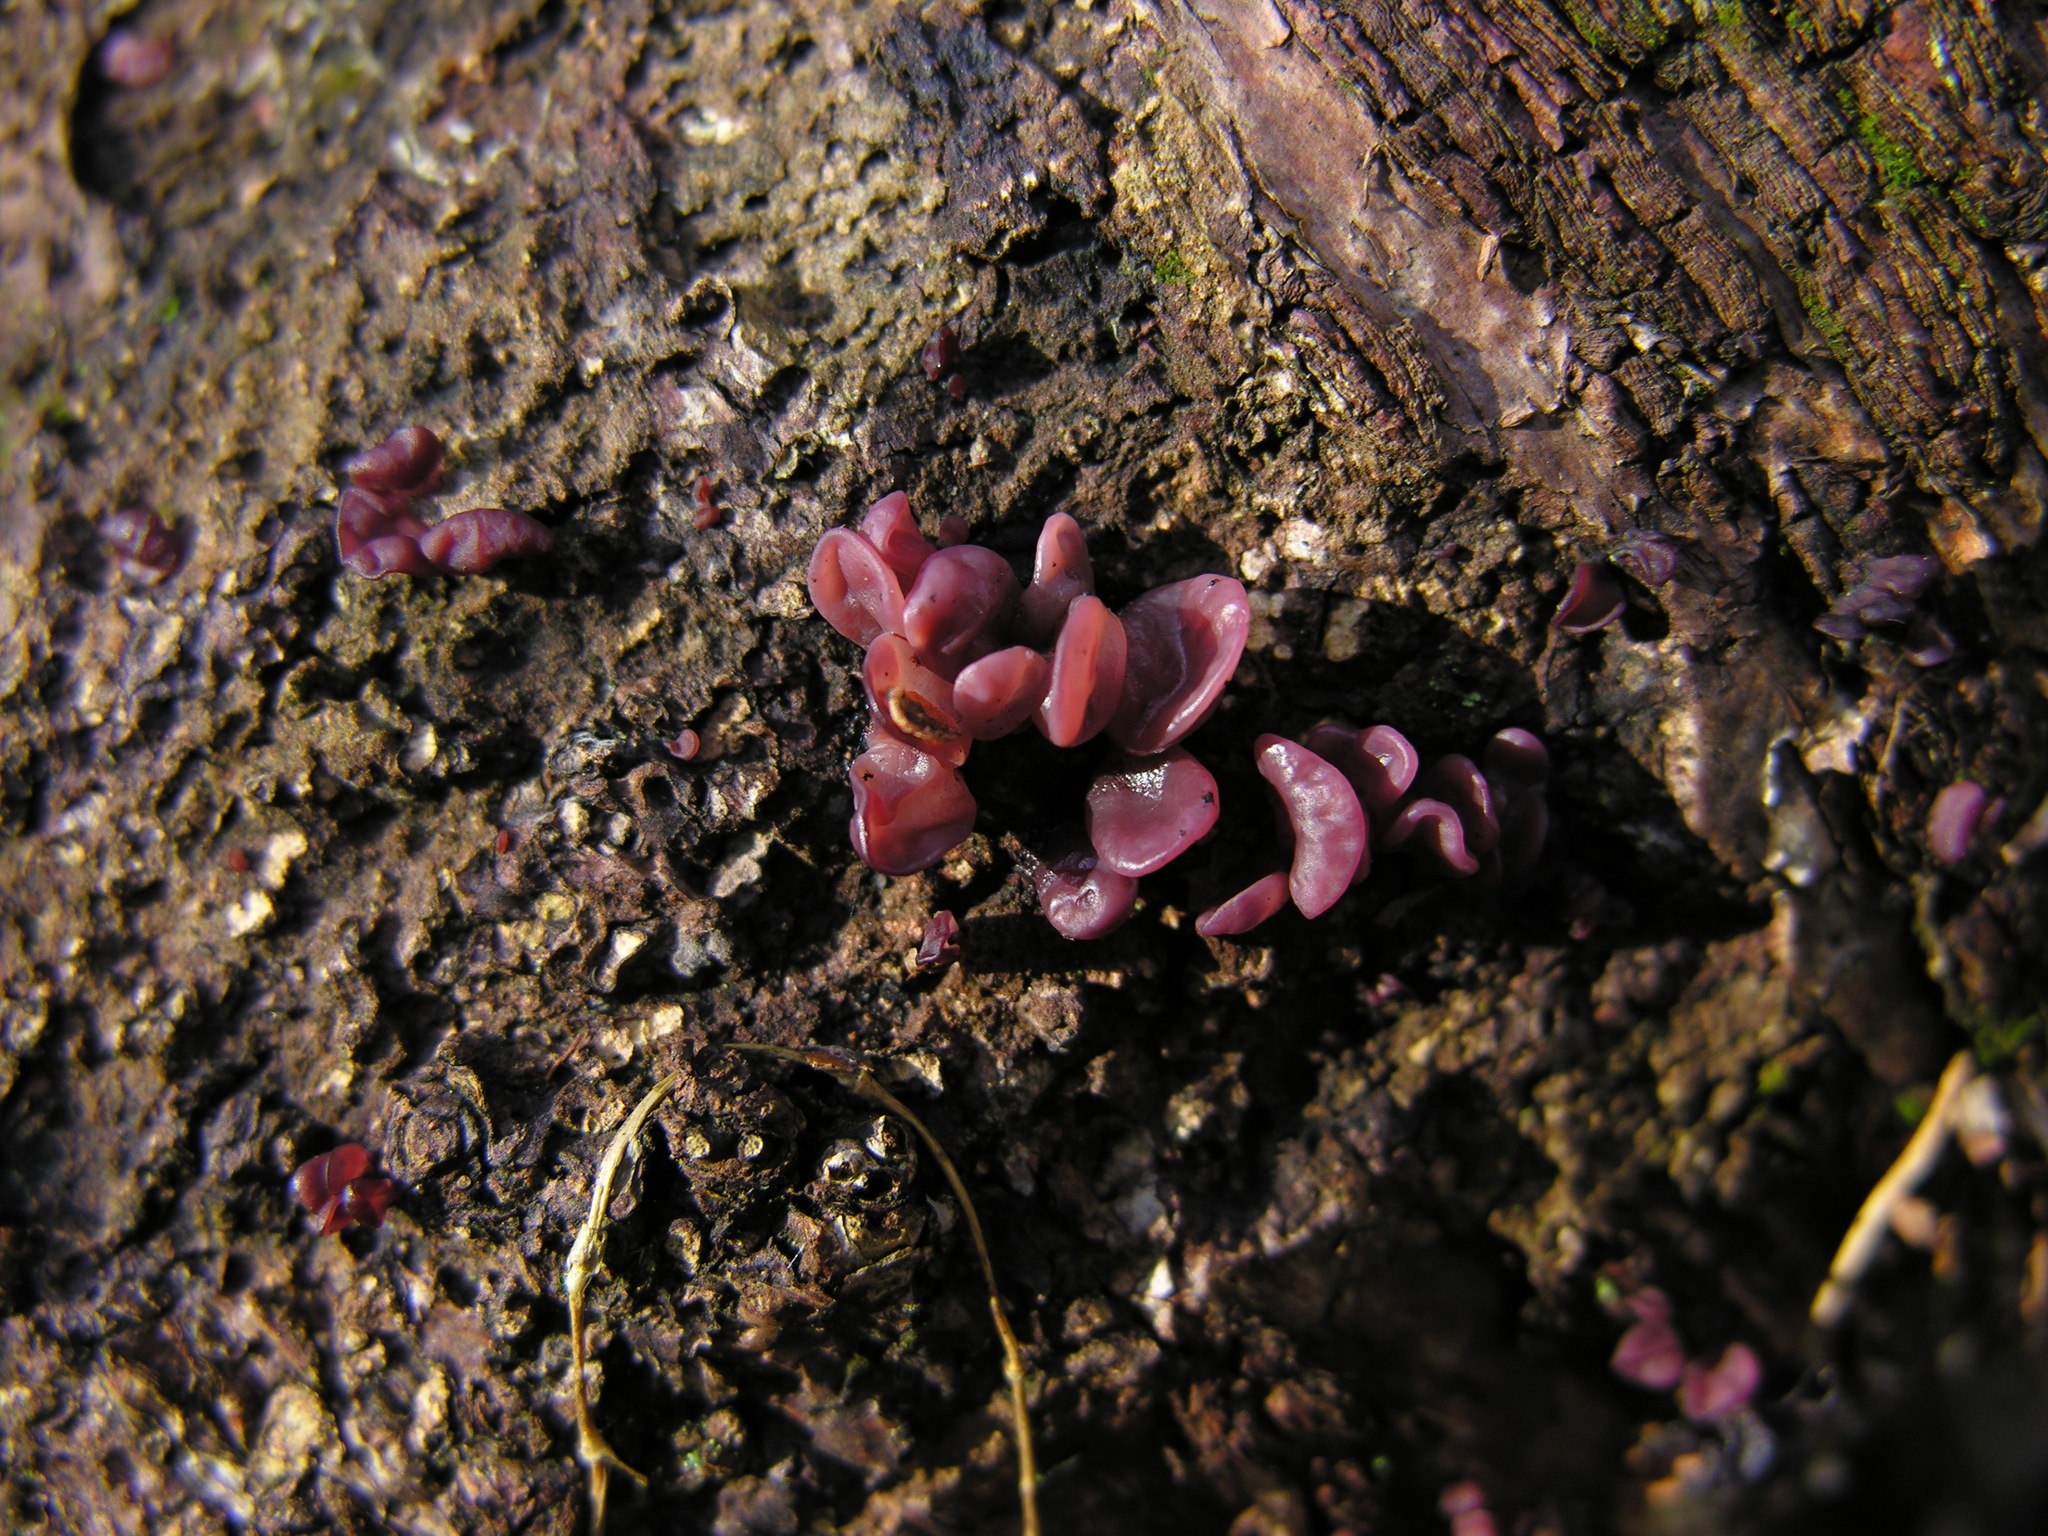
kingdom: Fungi
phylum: Ascomycota
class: Leotiomycetes
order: Helotiales
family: Gelatinodiscaceae
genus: Ascocoryne
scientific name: Ascocoryne sarcoides
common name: Purple jellydisc
